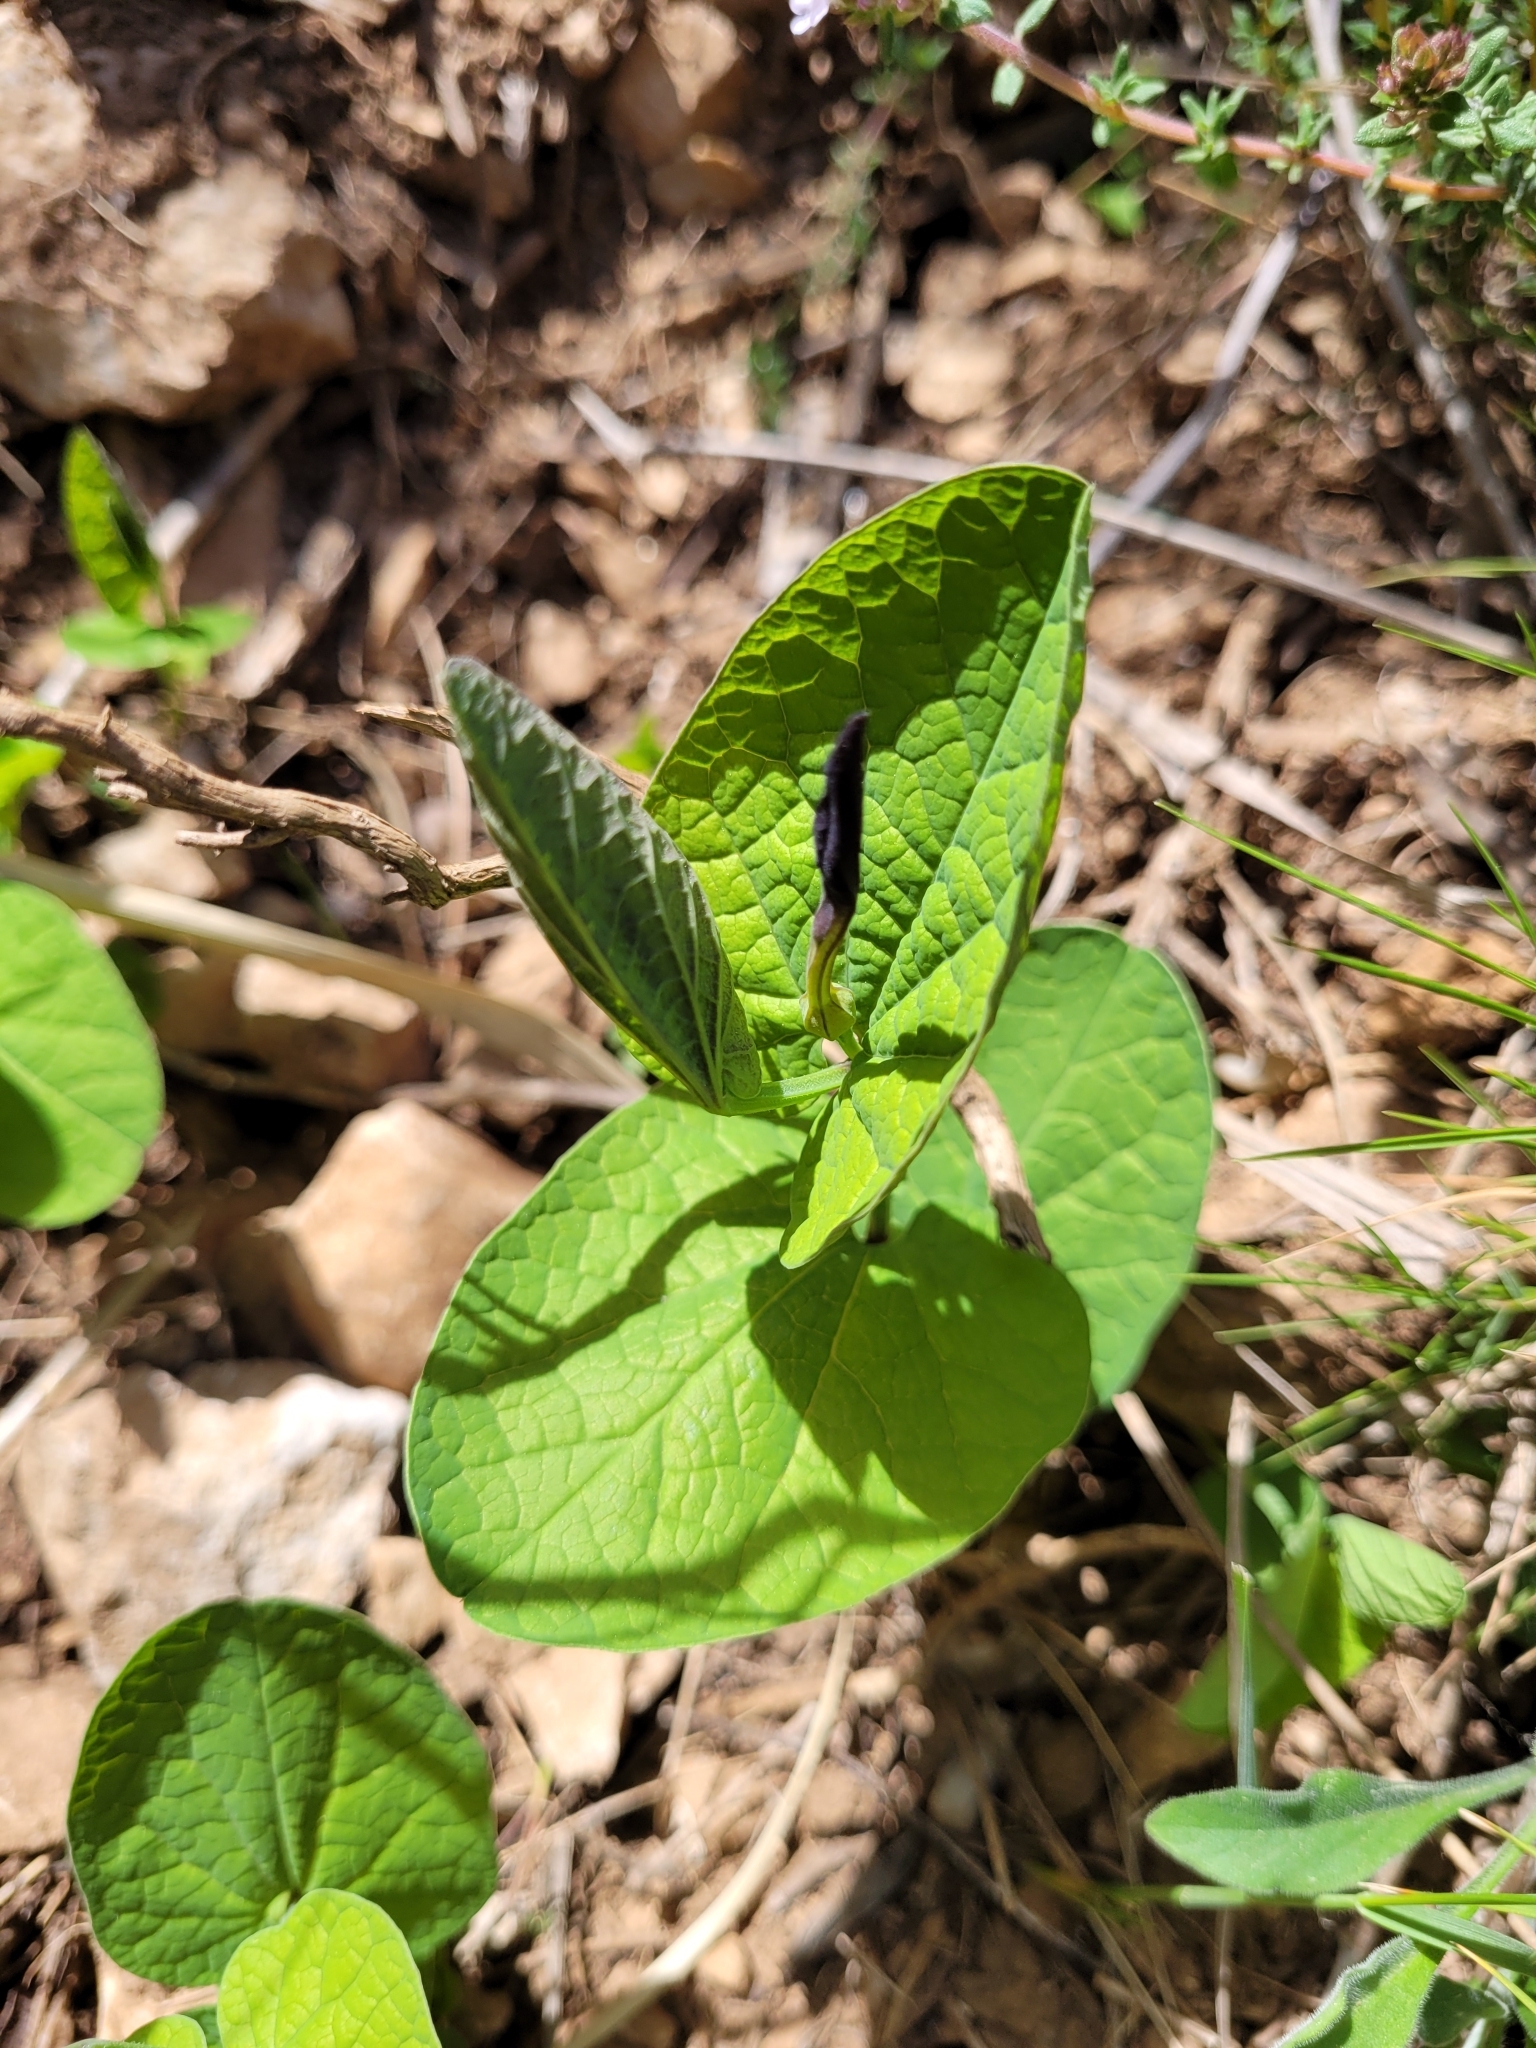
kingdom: Plantae
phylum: Tracheophyta
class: Magnoliopsida
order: Piperales
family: Aristolochiaceae
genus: Aristolochia
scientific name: Aristolochia rotunda
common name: Smearwort
